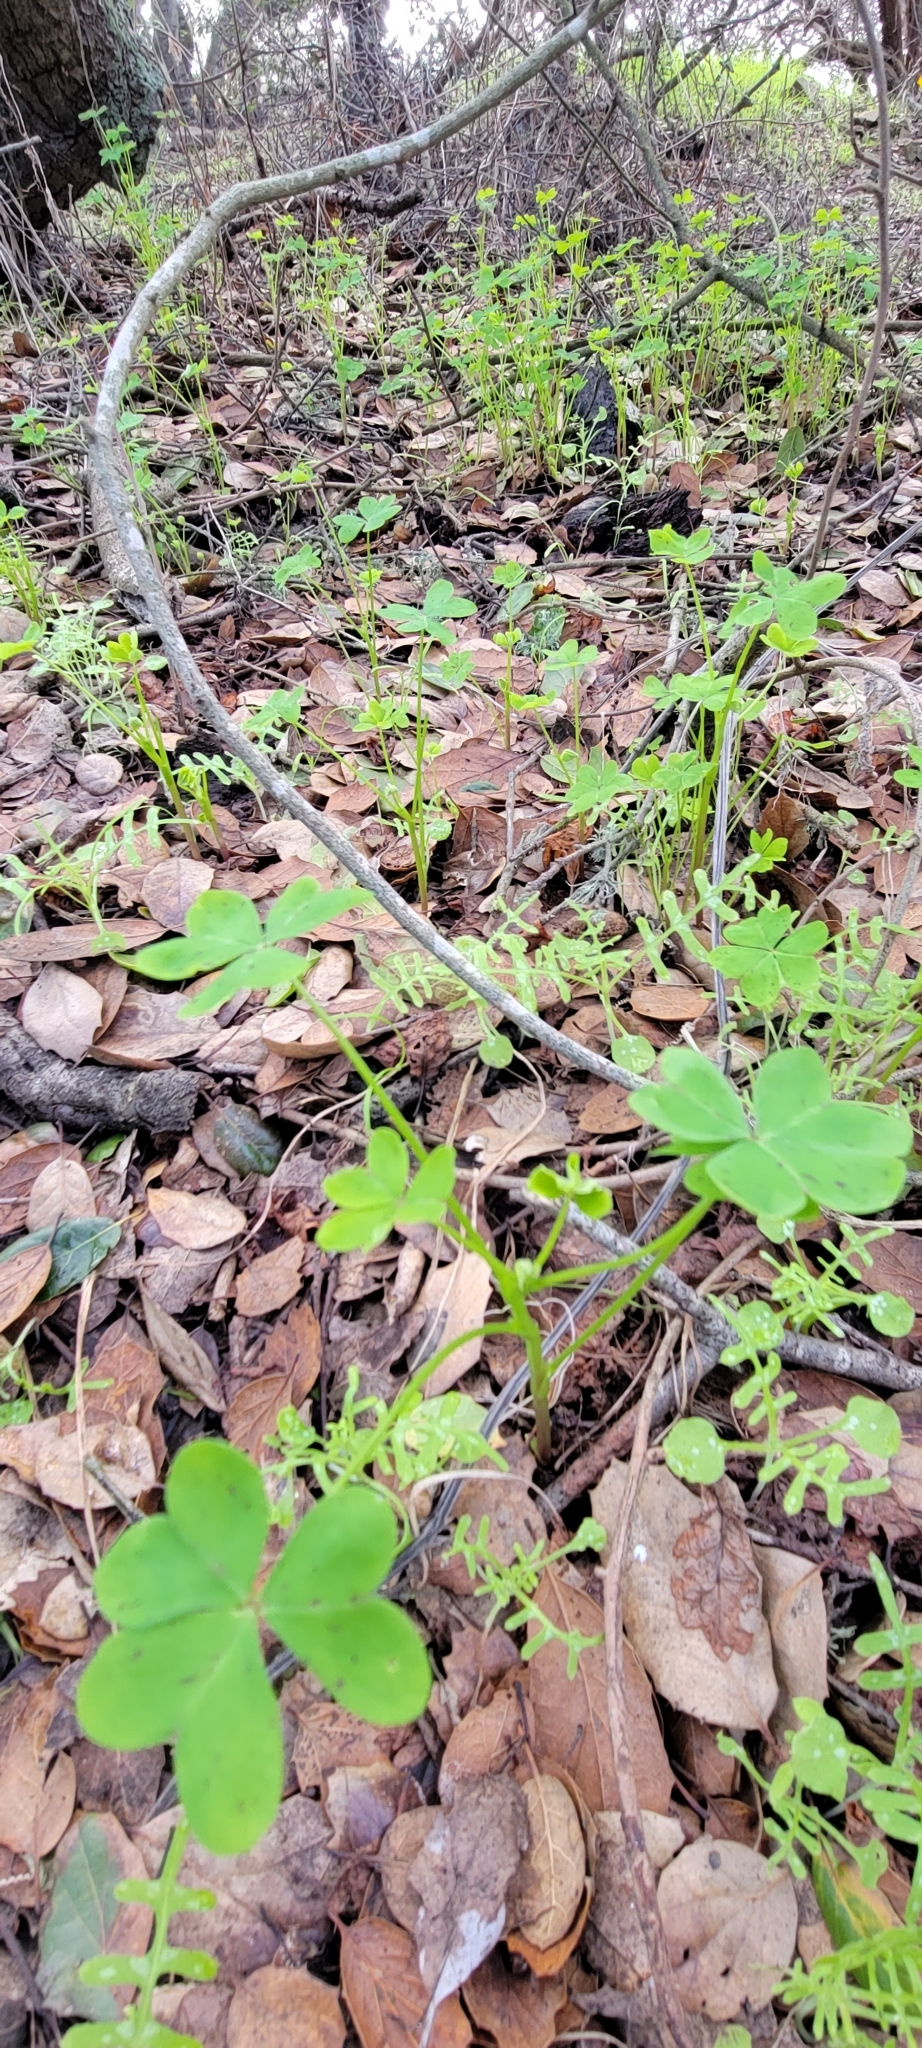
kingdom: Plantae
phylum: Tracheophyta
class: Magnoliopsida
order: Oxalidales
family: Oxalidaceae
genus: Oxalis
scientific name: Oxalis pes-caprae
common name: Bermuda-buttercup
